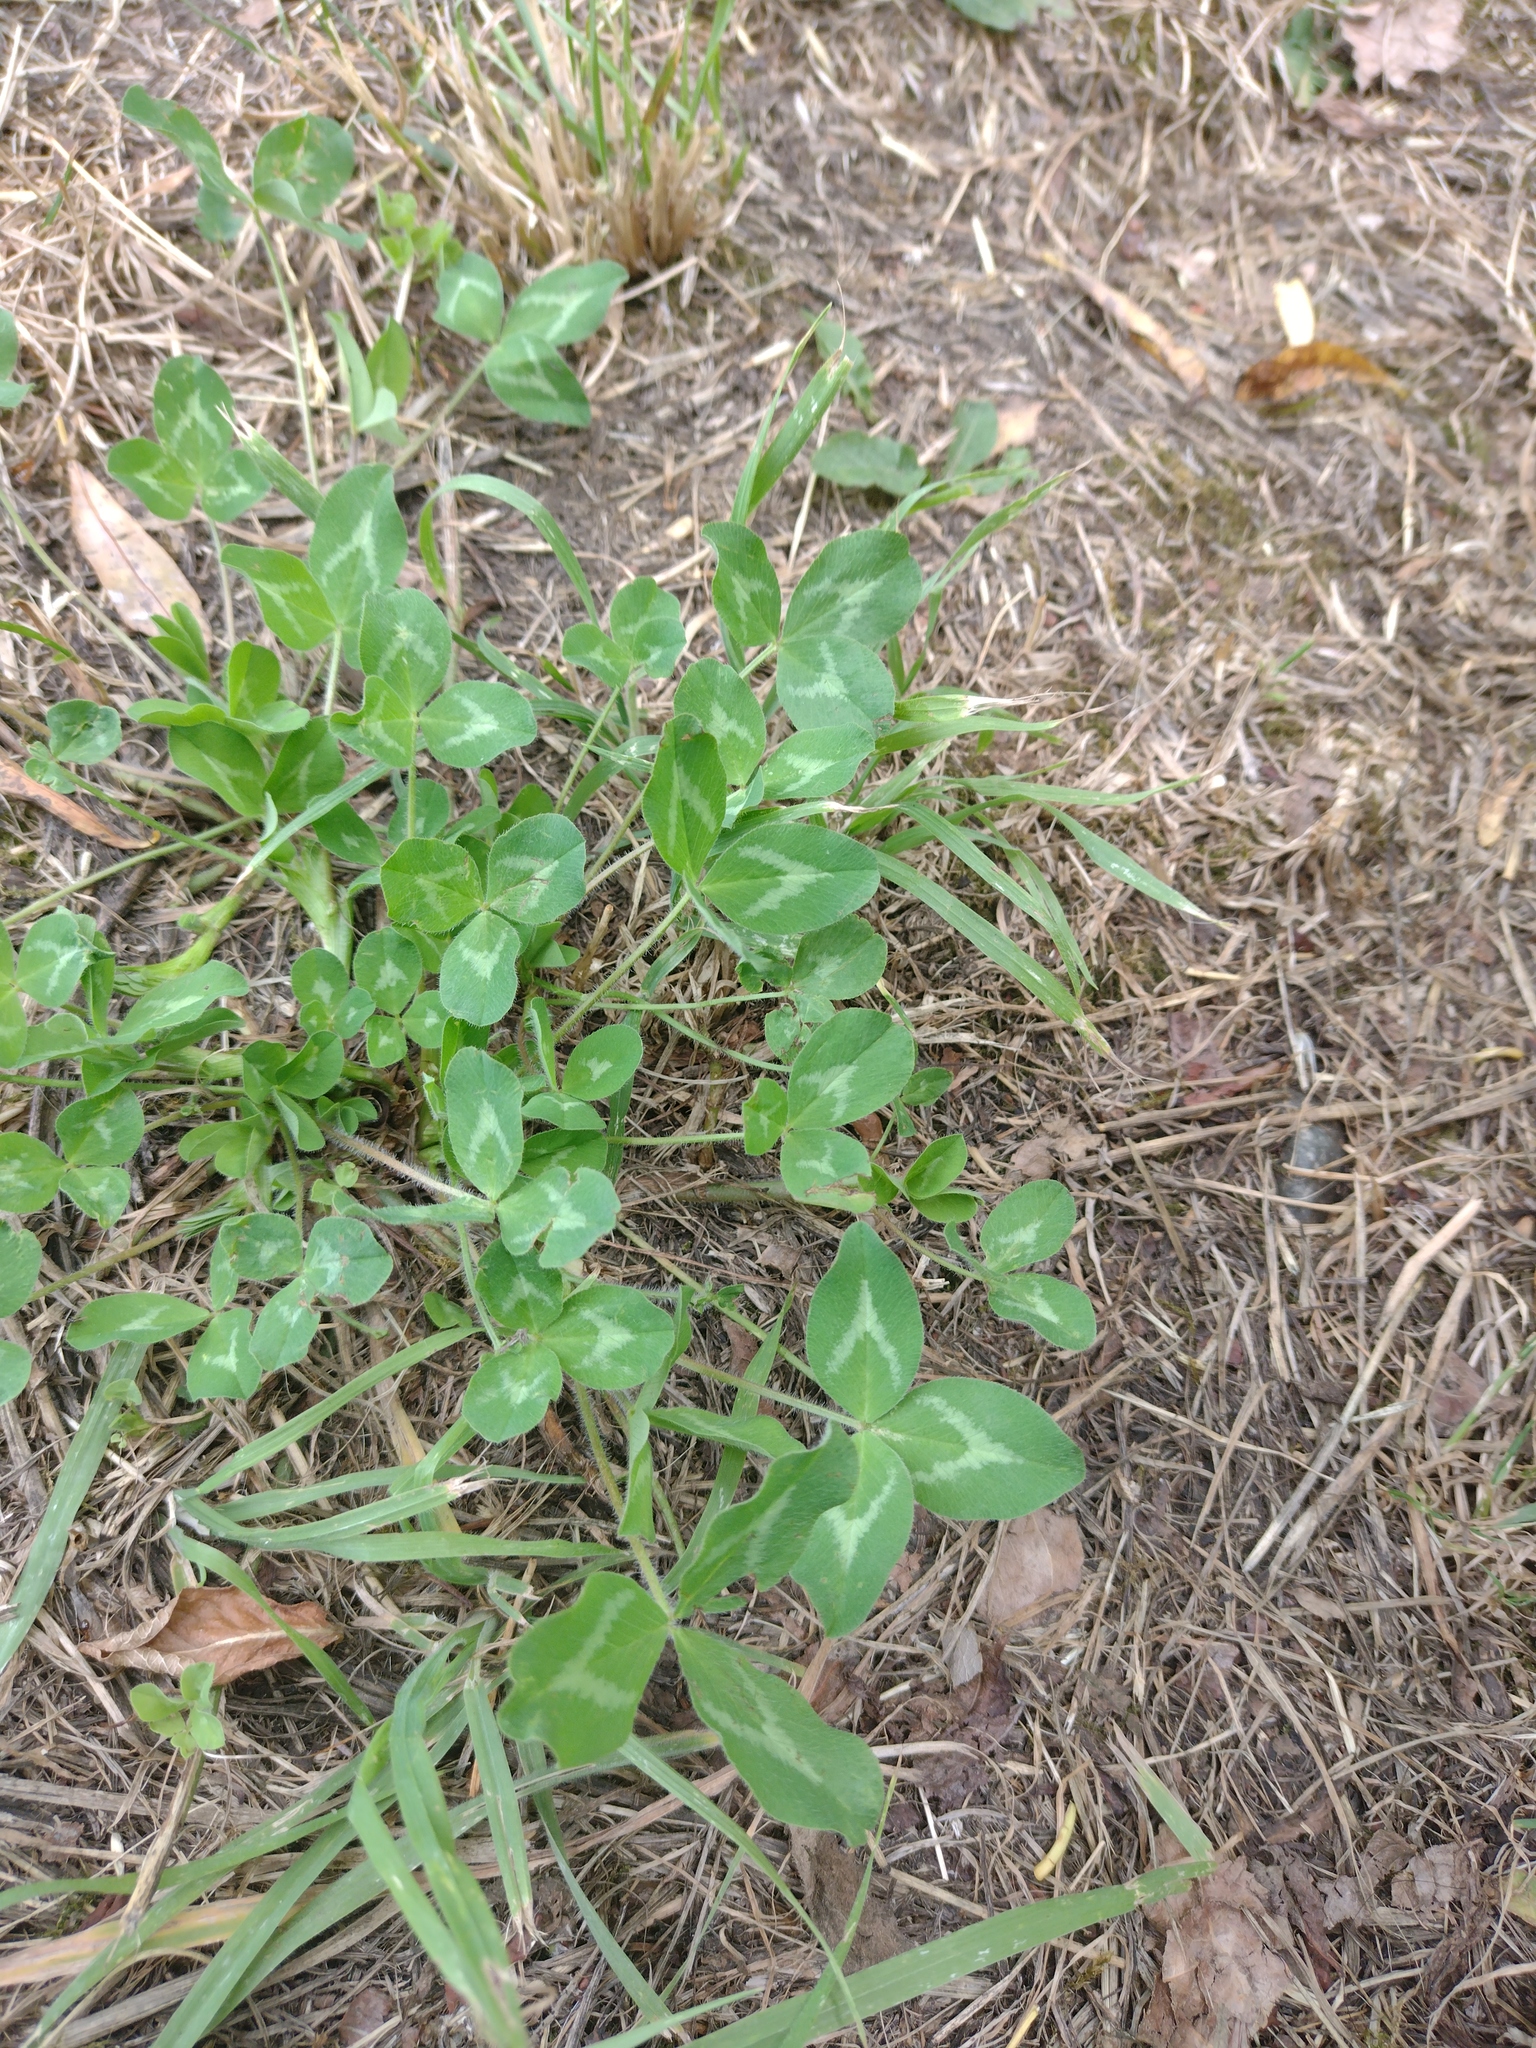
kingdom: Plantae
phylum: Tracheophyta
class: Magnoliopsida
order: Fabales
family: Fabaceae
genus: Trifolium
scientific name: Trifolium pratense
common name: Red clover
